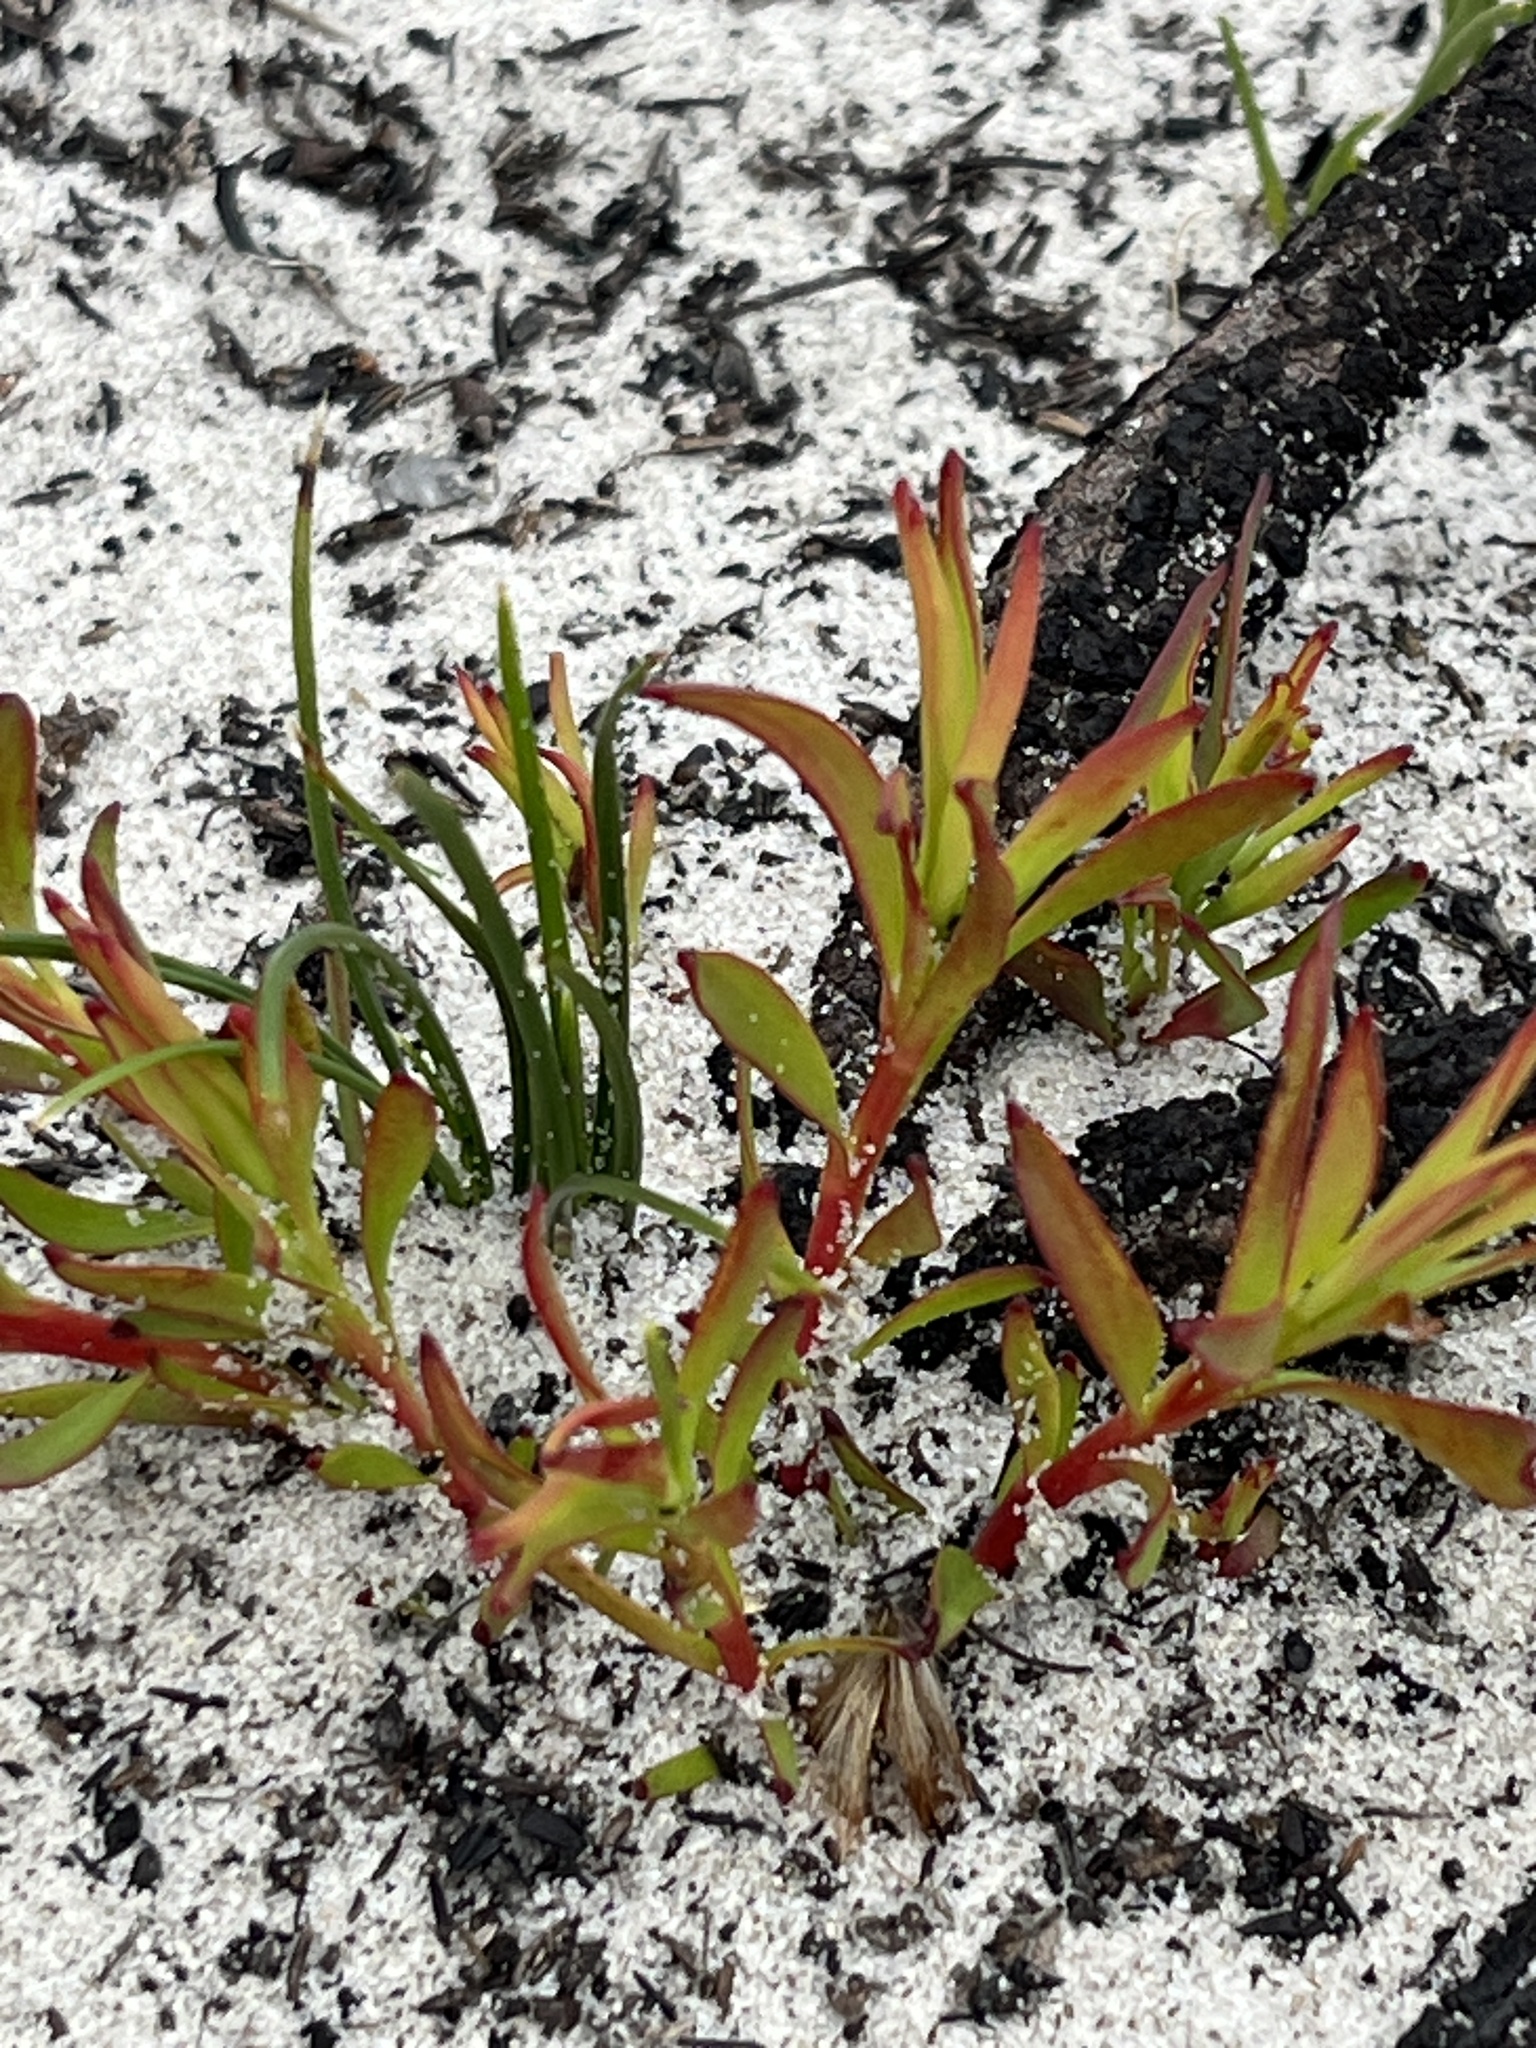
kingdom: Plantae
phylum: Tracheophyta
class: Magnoliopsida
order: Proteales
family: Proteaceae
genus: Leucadendron
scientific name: Leucadendron salignum
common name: Common sunshine conebush
